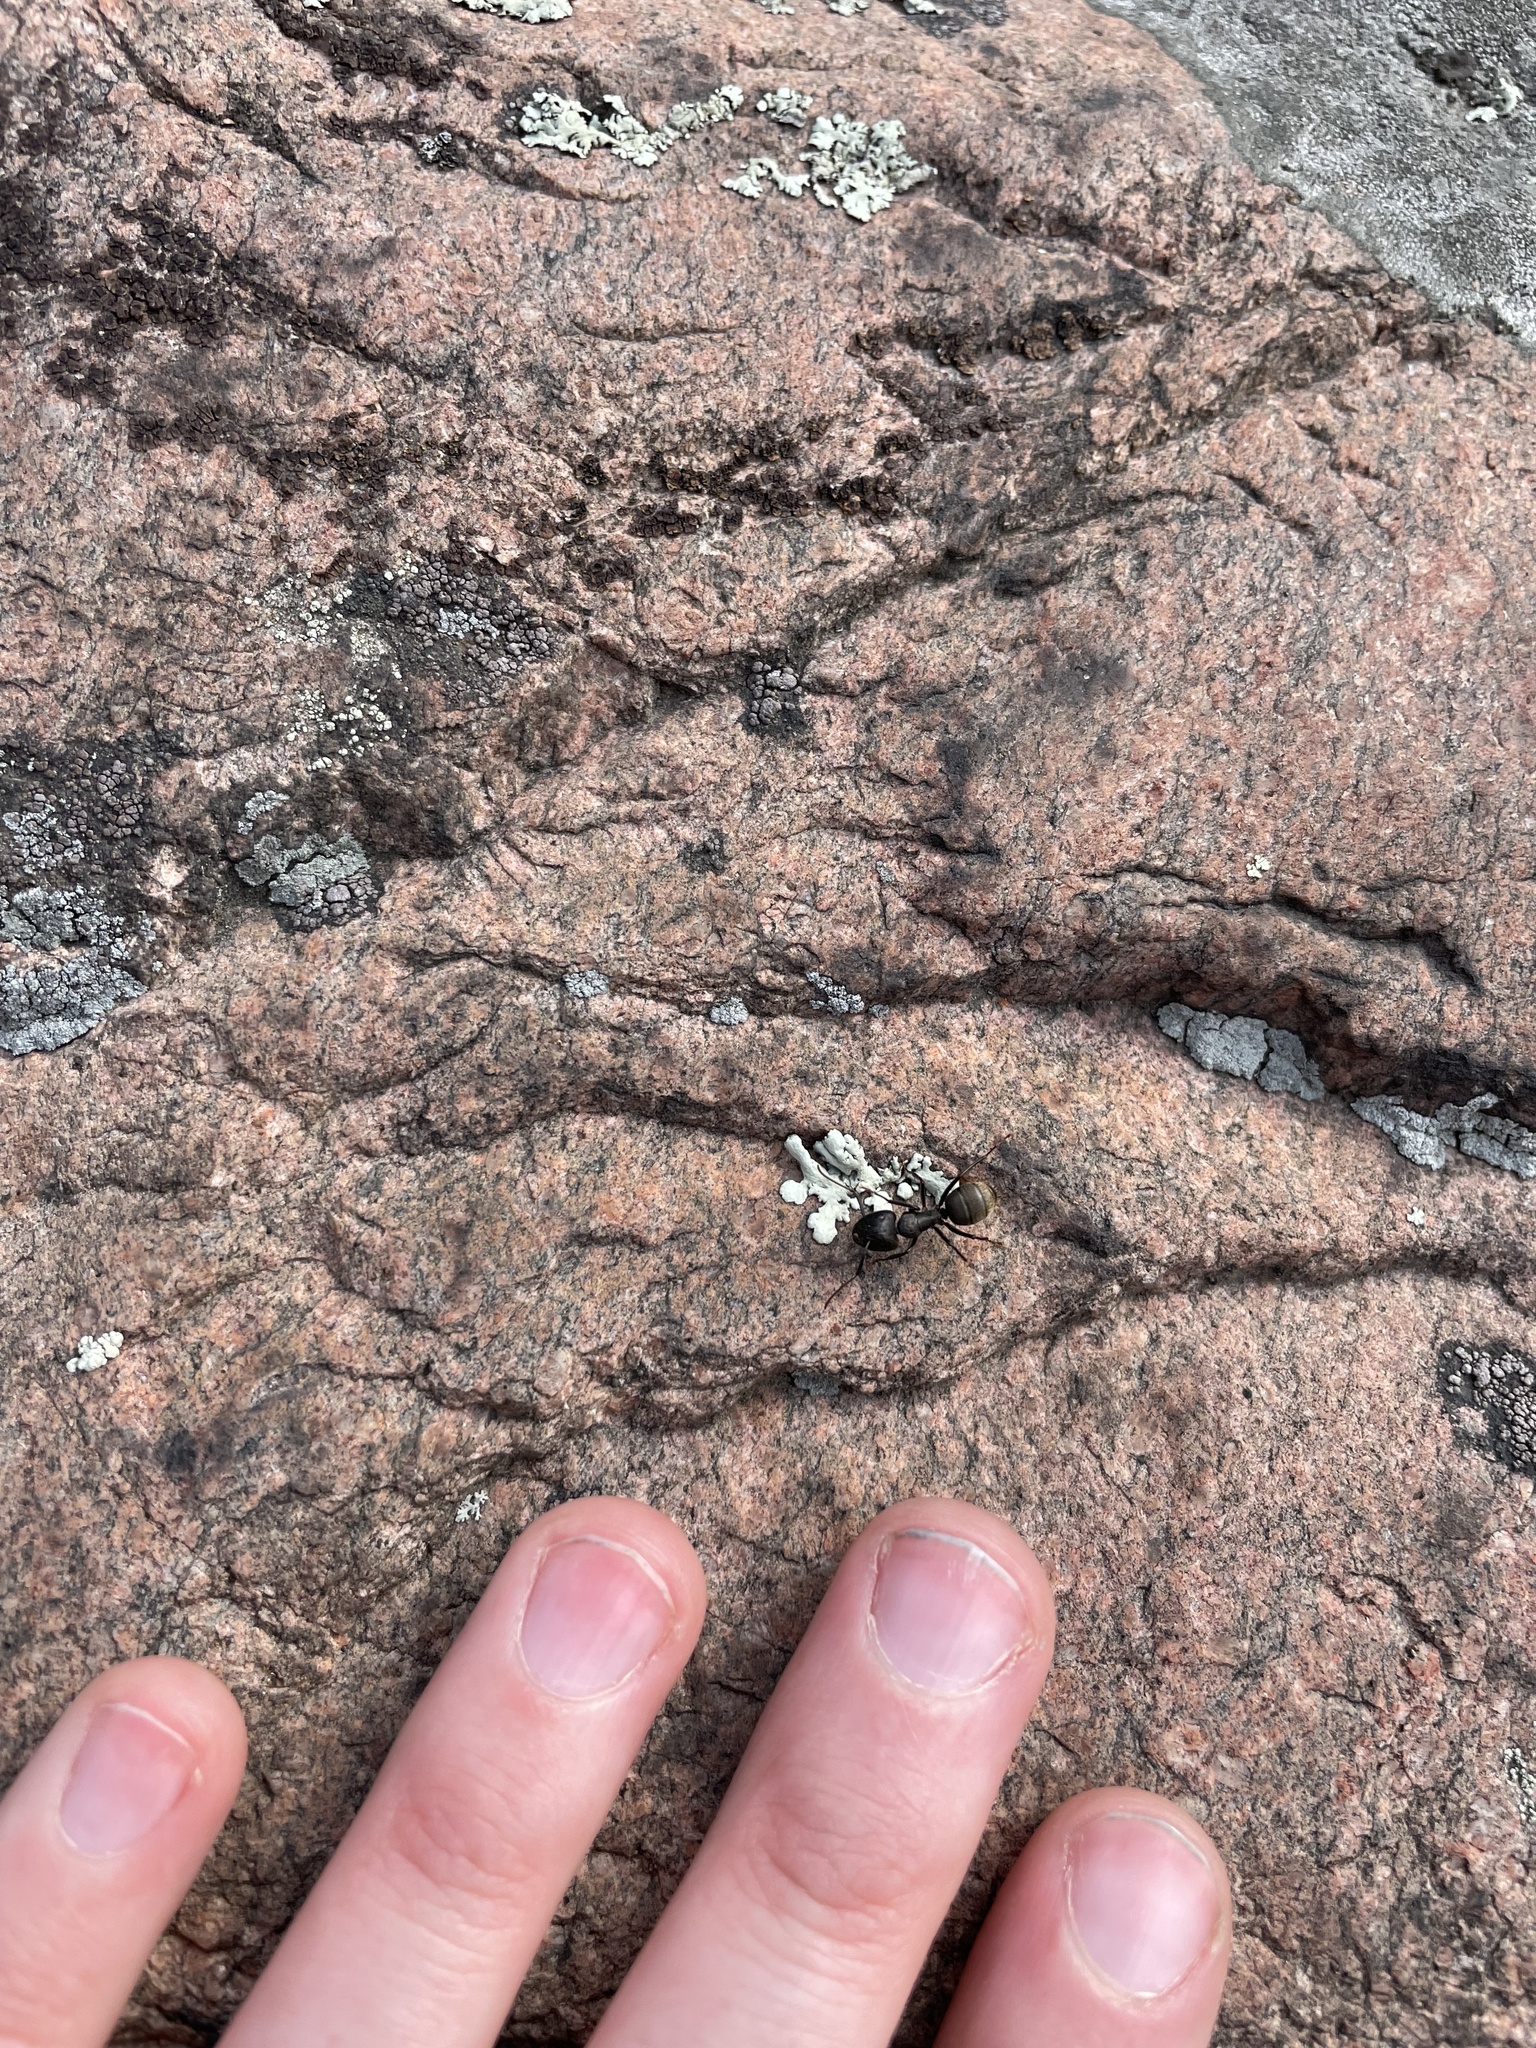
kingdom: Animalia
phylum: Arthropoda
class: Insecta
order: Hymenoptera
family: Formicidae
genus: Camponotus
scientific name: Camponotus pennsylvanicus
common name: Black carpenter ant
